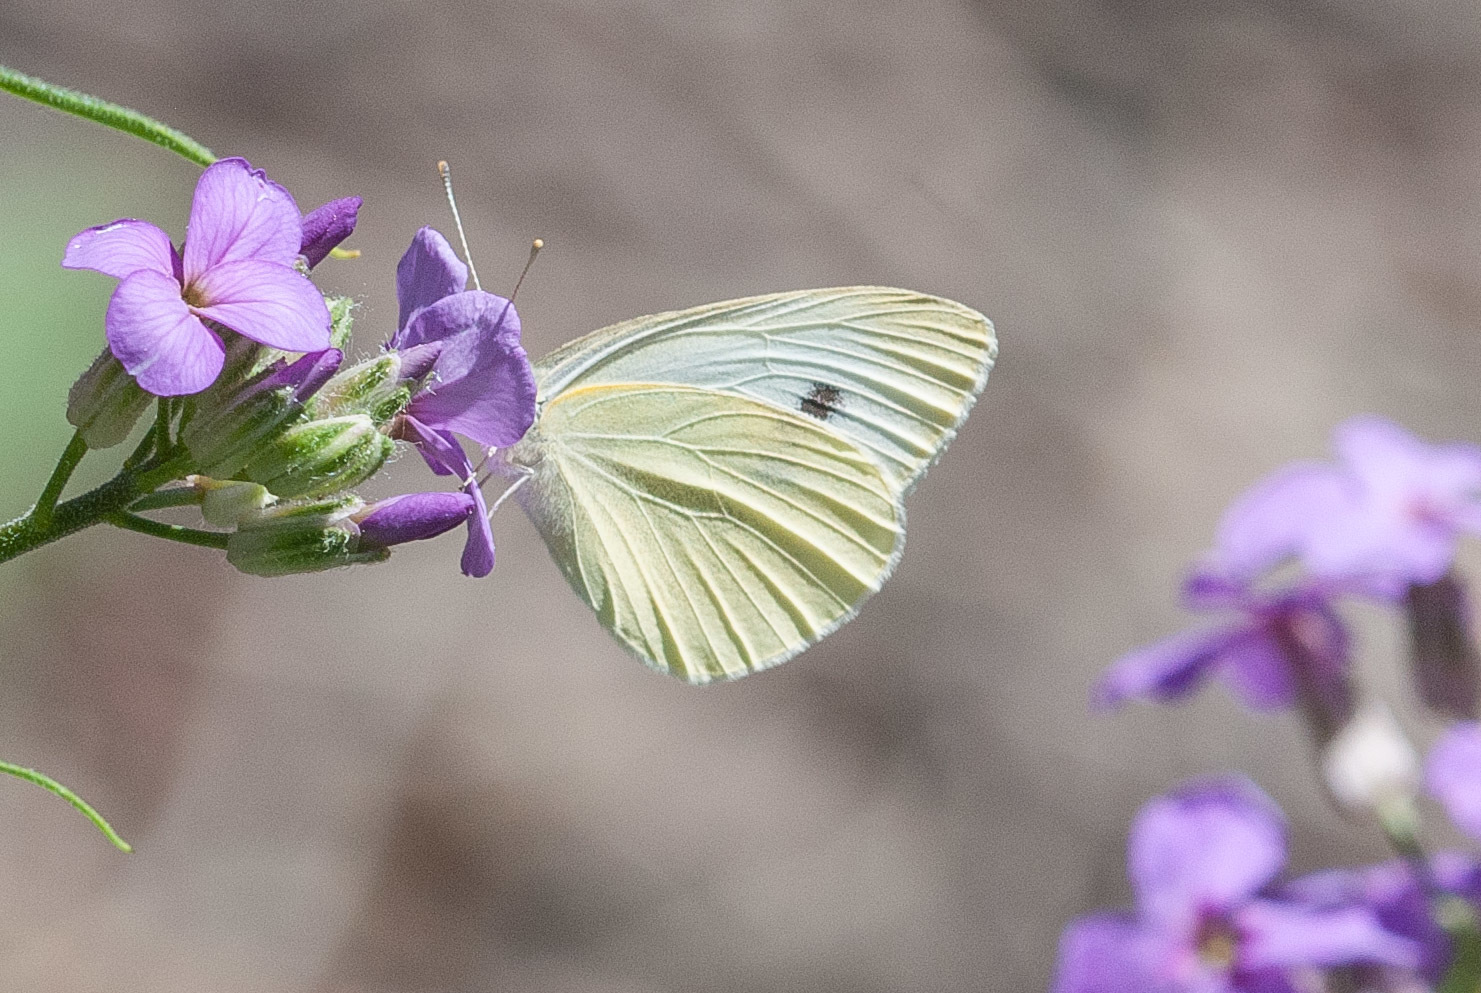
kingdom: Animalia
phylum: Arthropoda
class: Insecta
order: Lepidoptera
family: Pieridae
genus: Pieris
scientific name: Pieris rapae
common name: Small white
